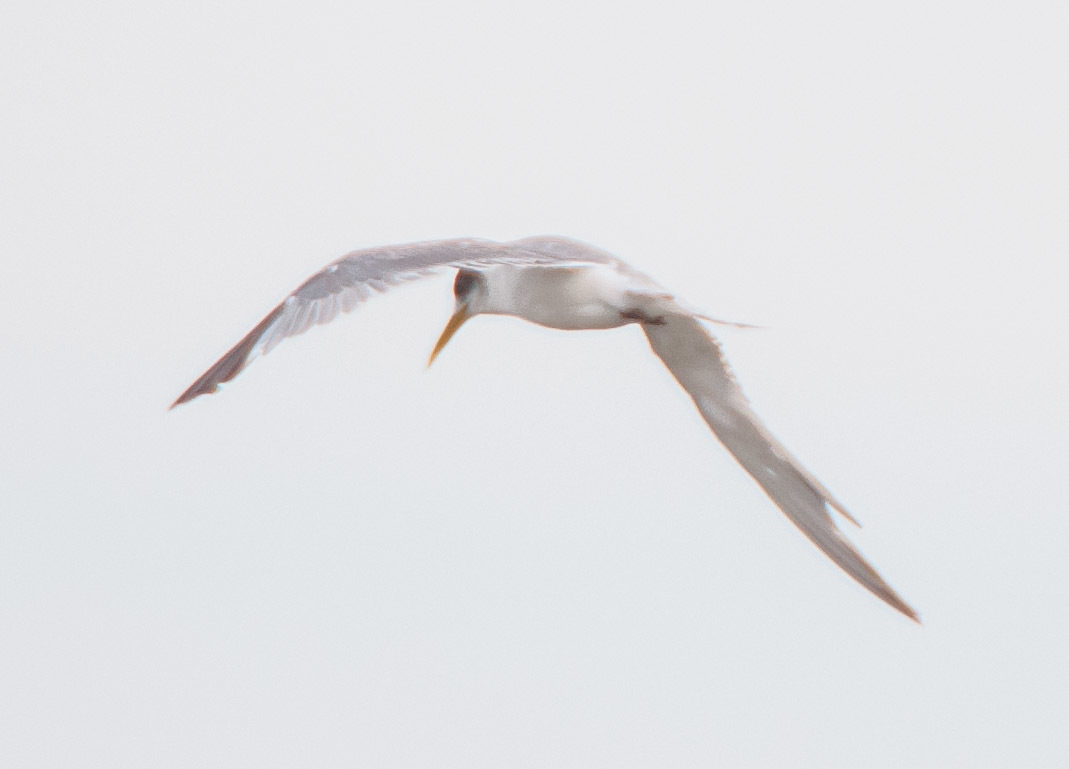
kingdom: Animalia
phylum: Chordata
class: Aves
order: Charadriiformes
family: Laridae
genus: Thalasseus
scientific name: Thalasseus bergii
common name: Greater crested tern
